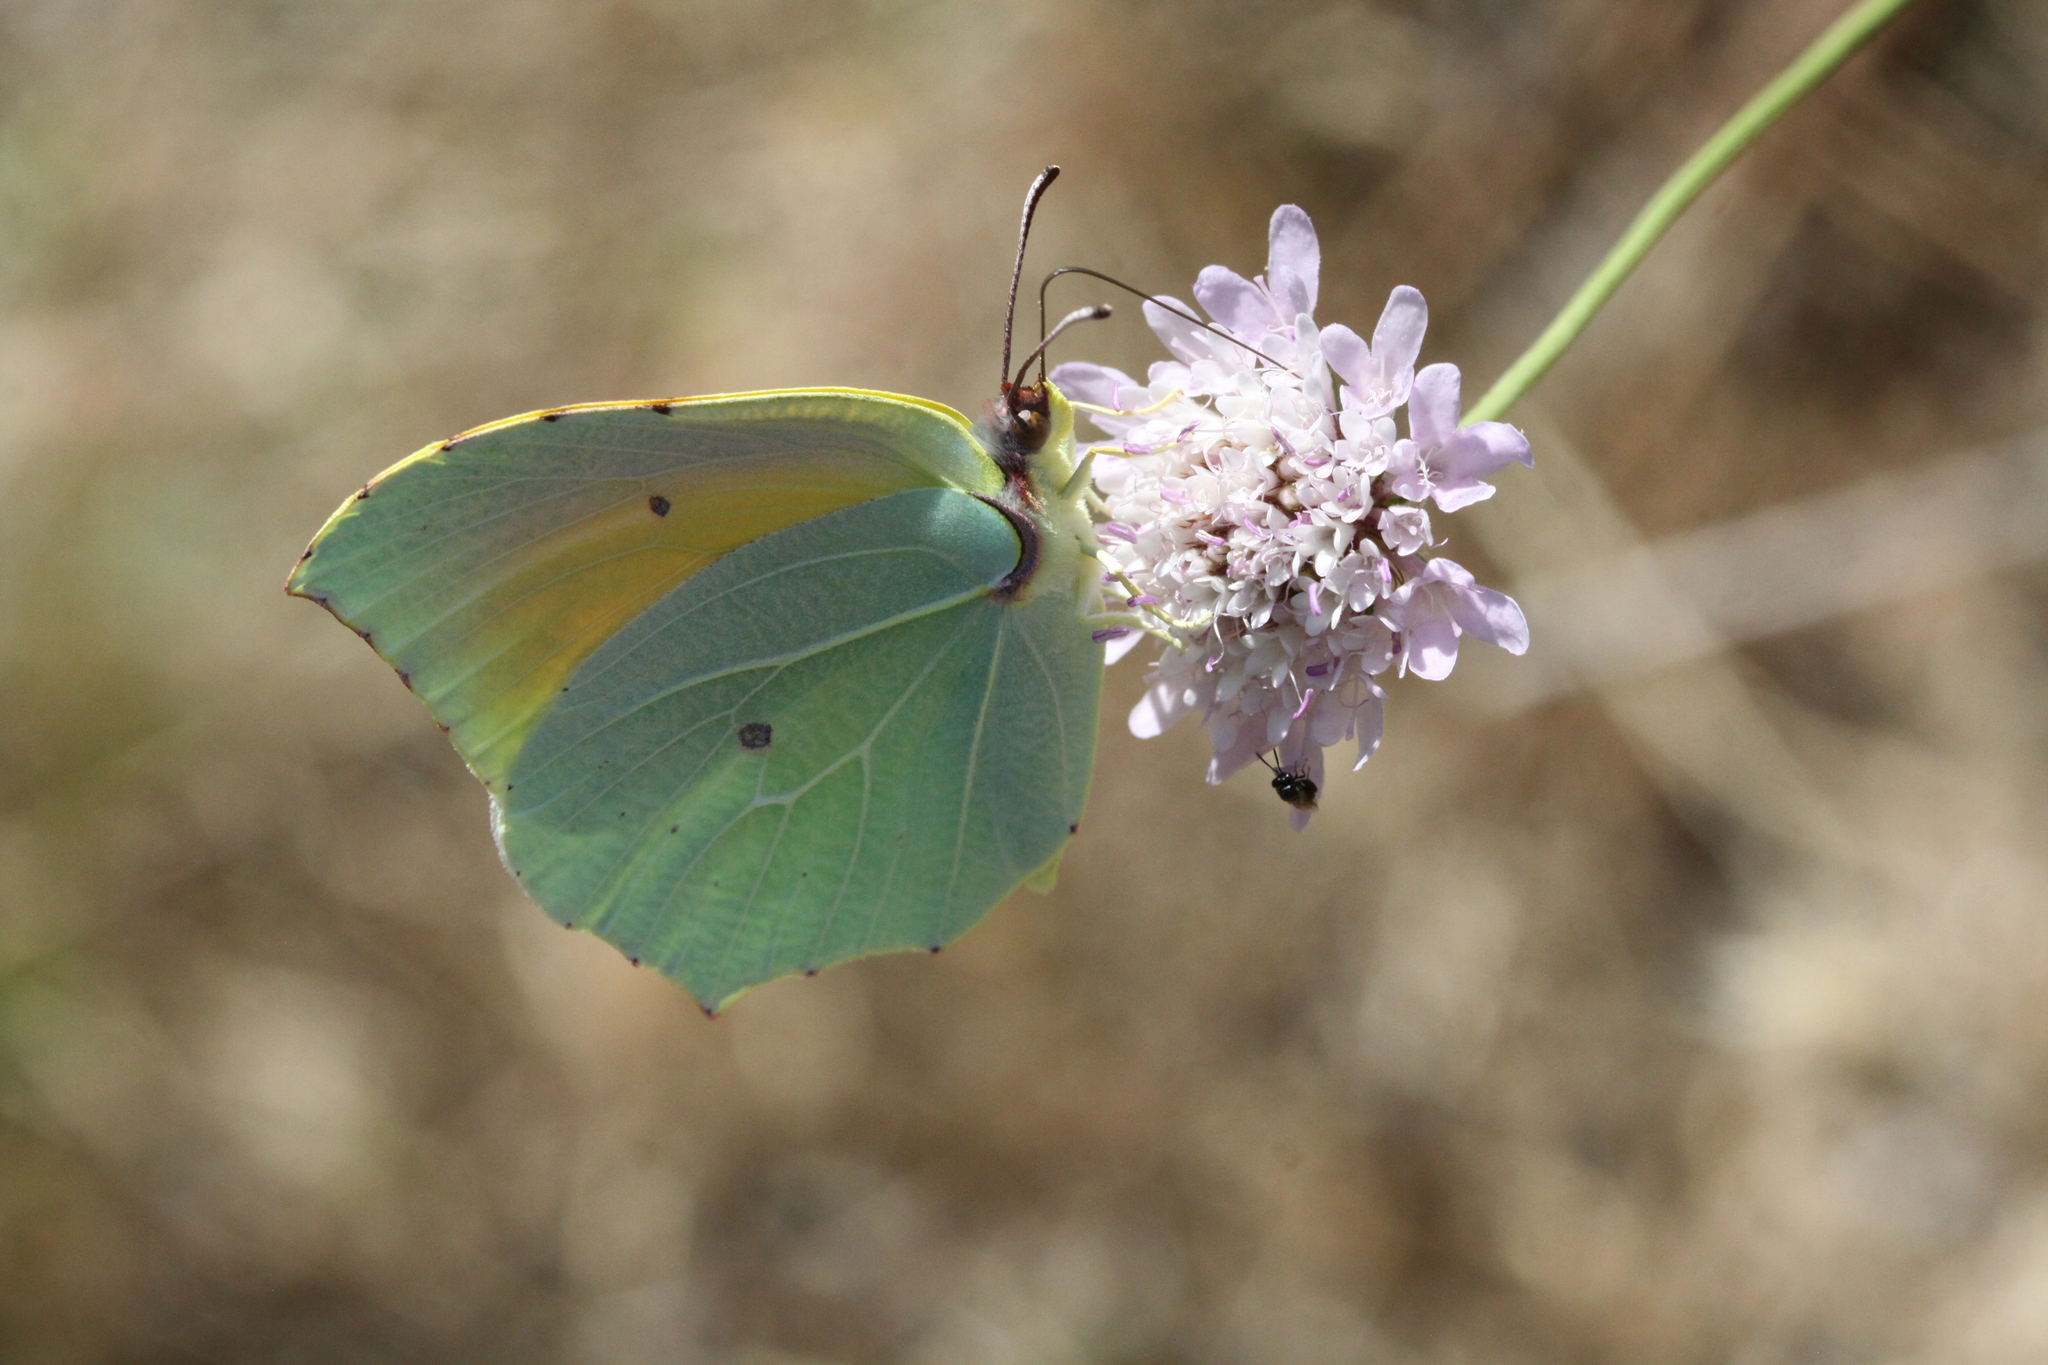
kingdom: Animalia
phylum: Arthropoda
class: Insecta
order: Lepidoptera
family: Pieridae
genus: Gonepteryx
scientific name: Gonepteryx cleopatra
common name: Cleopatra
